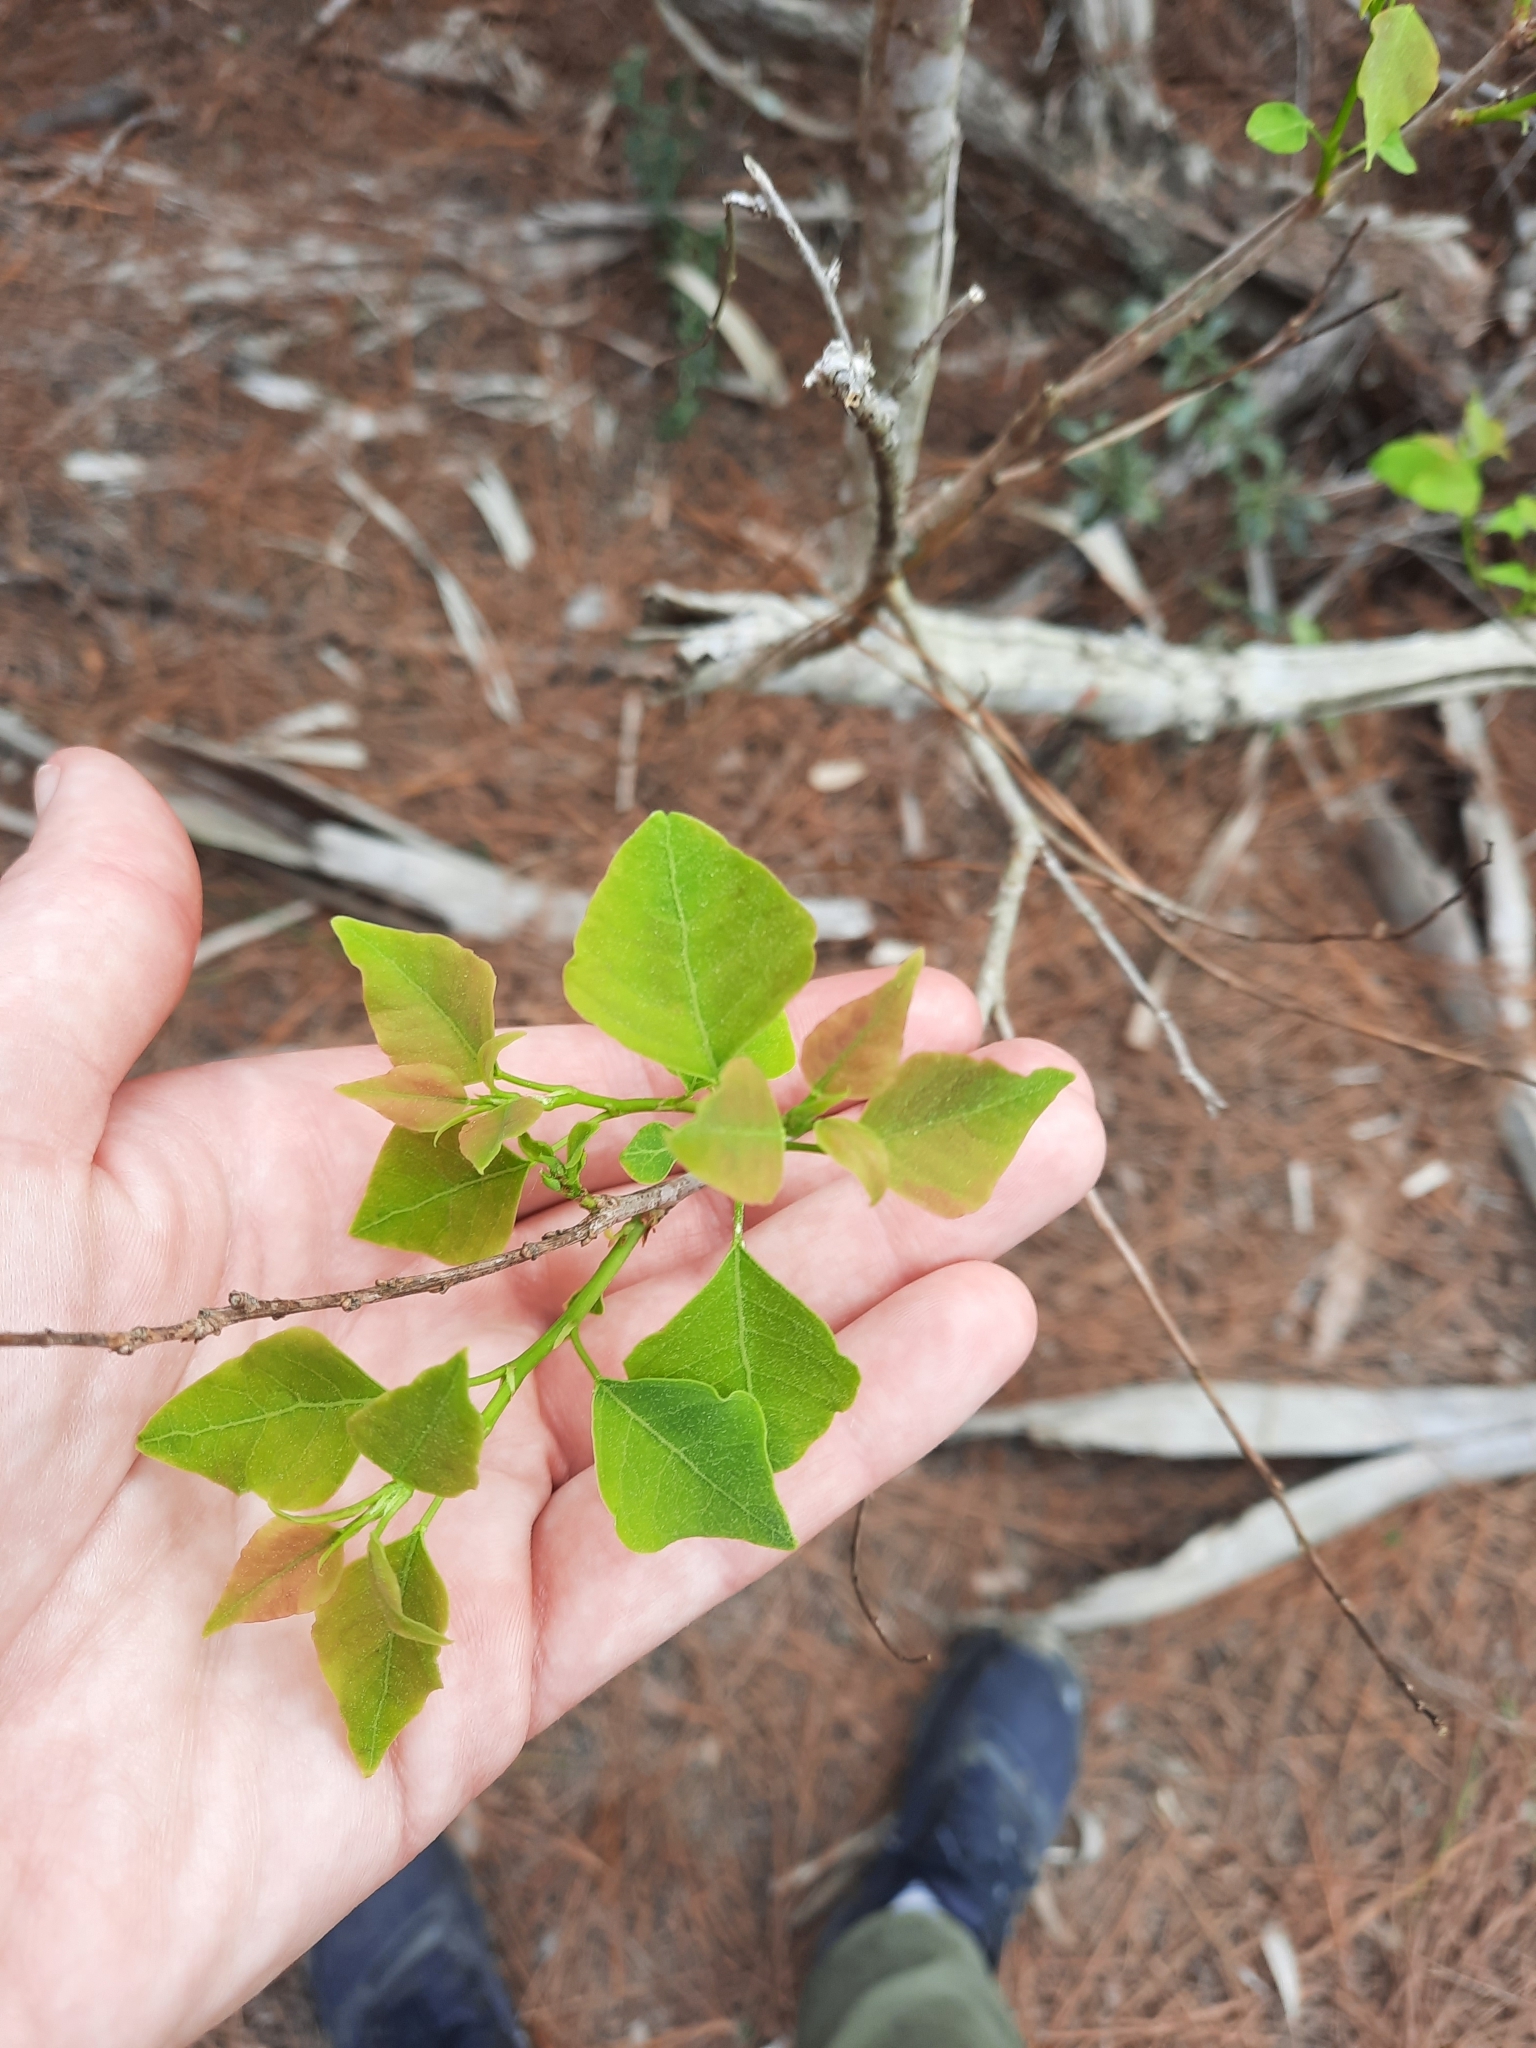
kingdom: Plantae
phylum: Tracheophyta
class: Magnoliopsida
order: Malpighiales
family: Euphorbiaceae
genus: Triadica
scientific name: Triadica sebifera
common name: Chinese tallow
